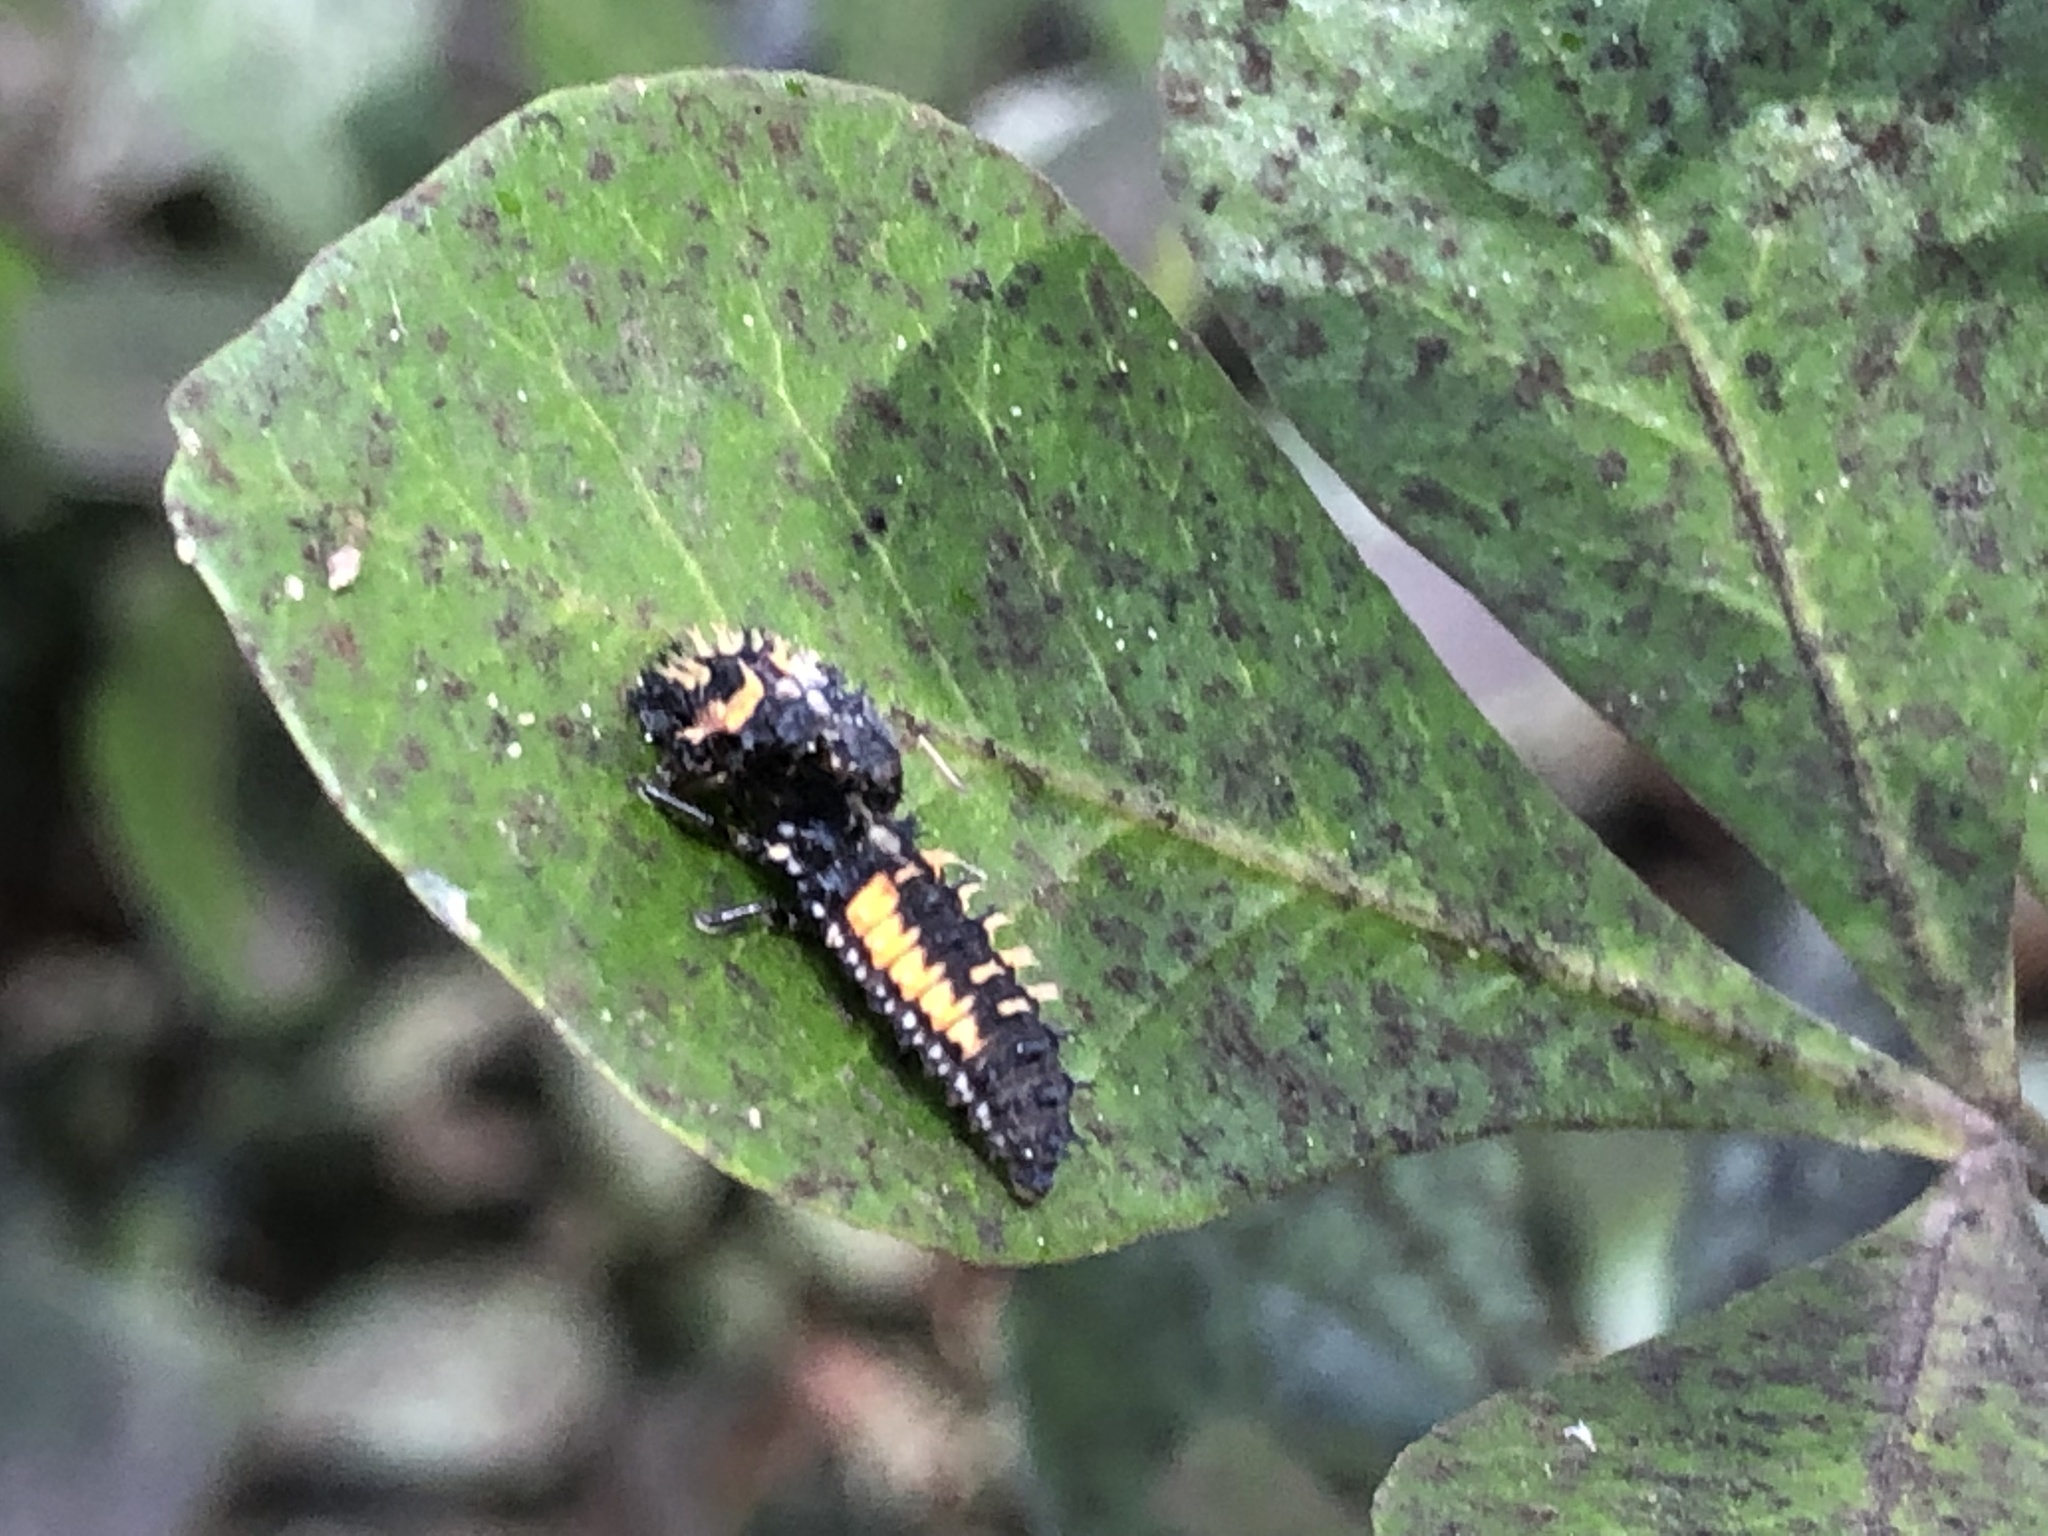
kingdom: Animalia
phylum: Arthropoda
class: Insecta
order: Coleoptera
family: Coccinellidae
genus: Harmonia
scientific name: Harmonia axyridis
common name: Harlequin ladybird
